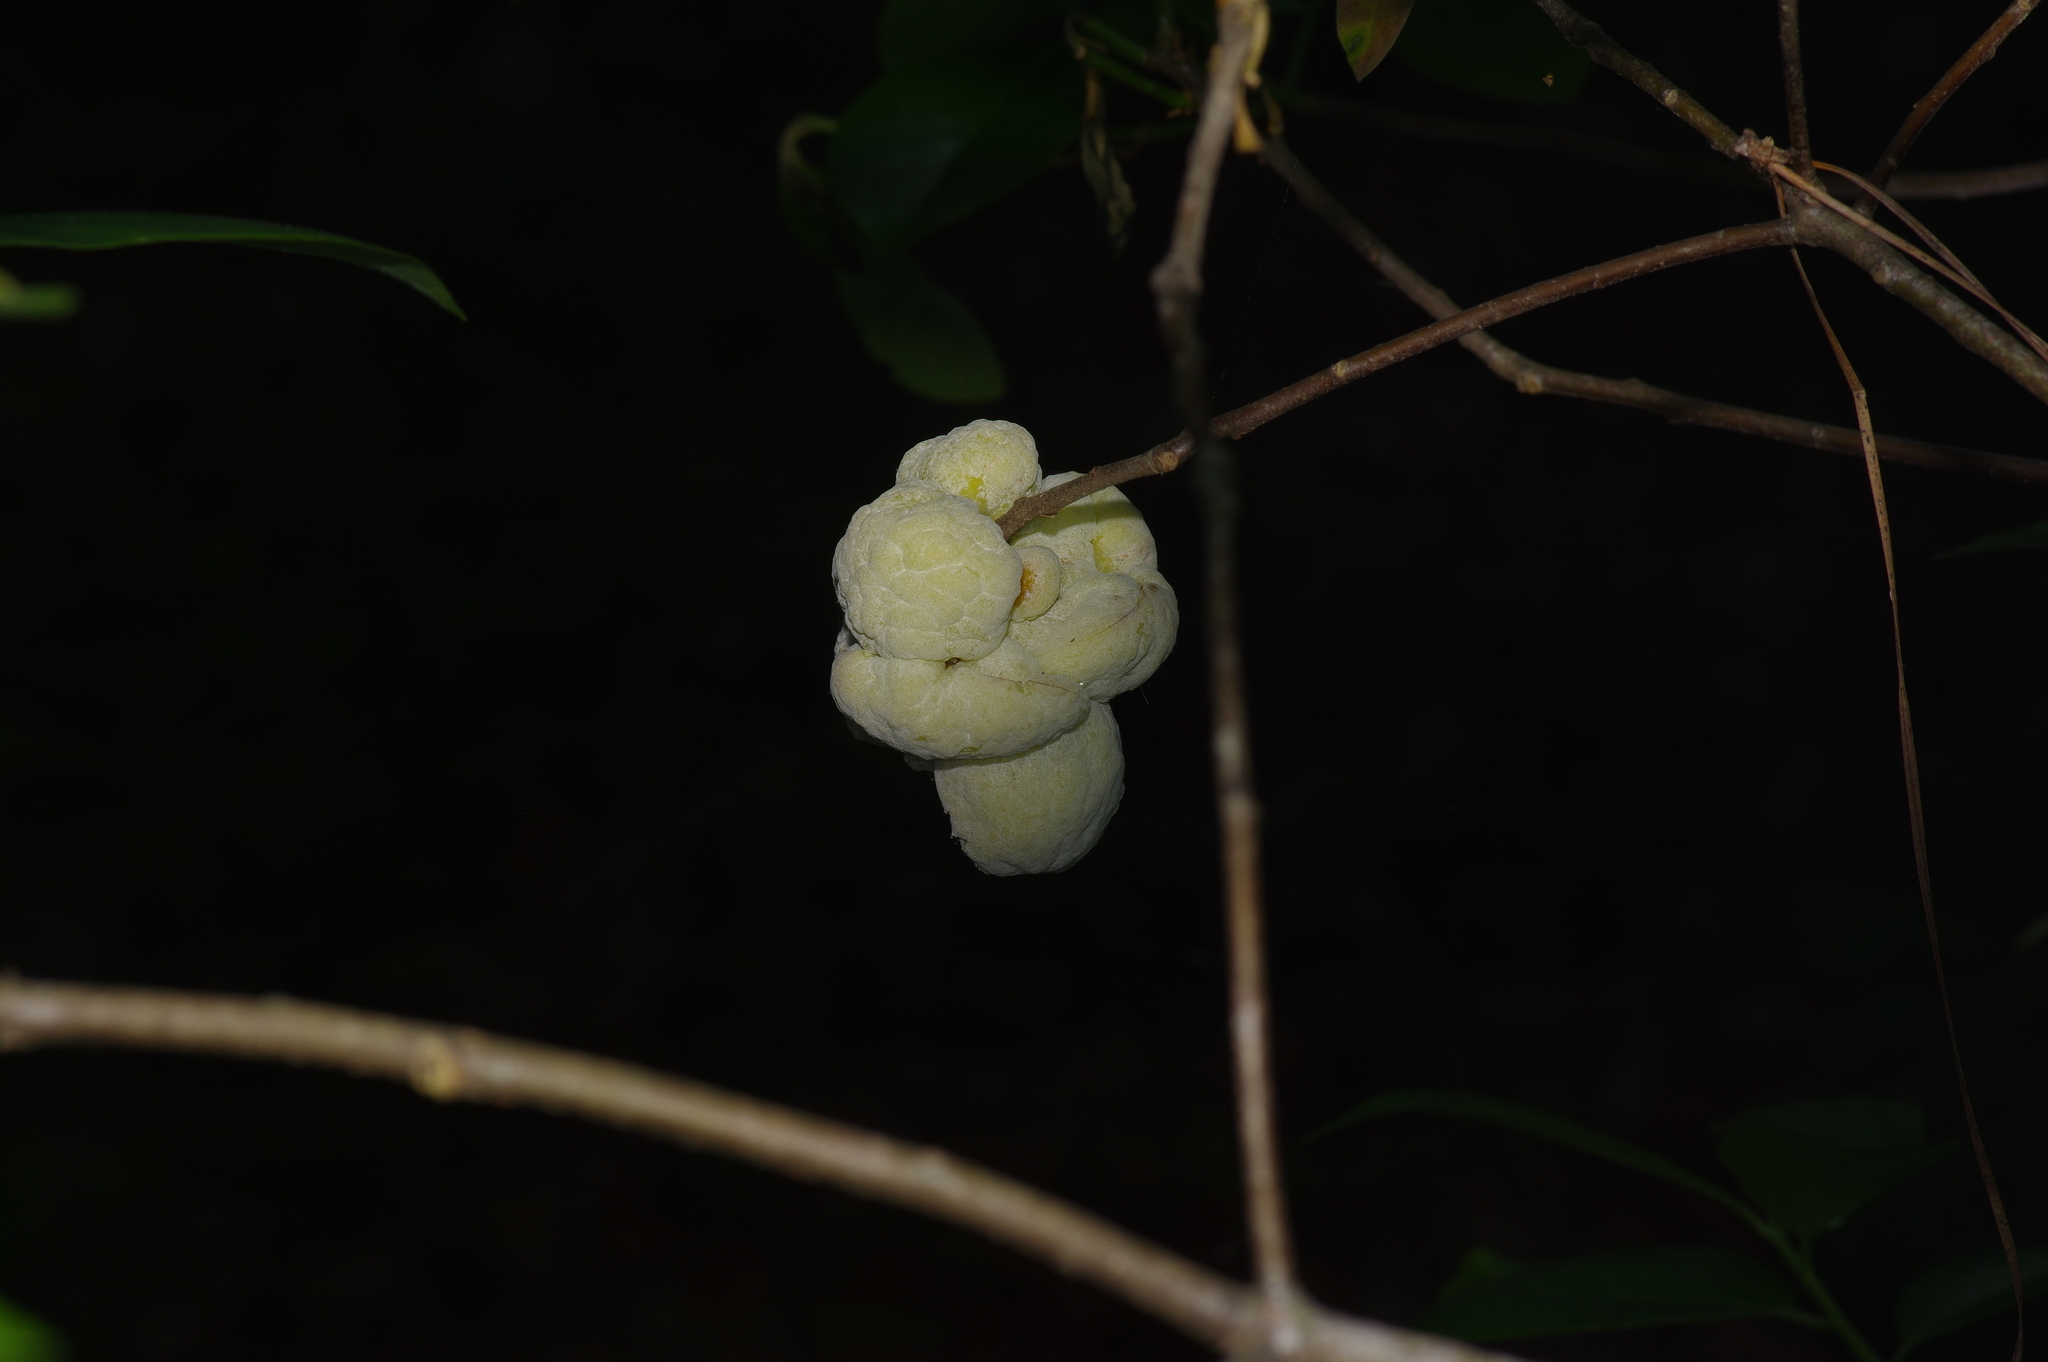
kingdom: Fungi
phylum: Basidiomycota
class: Exobasidiomycetes
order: Exobasidiales
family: Exobasidiaceae
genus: Exobasidium
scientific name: Exobasidium symploci
